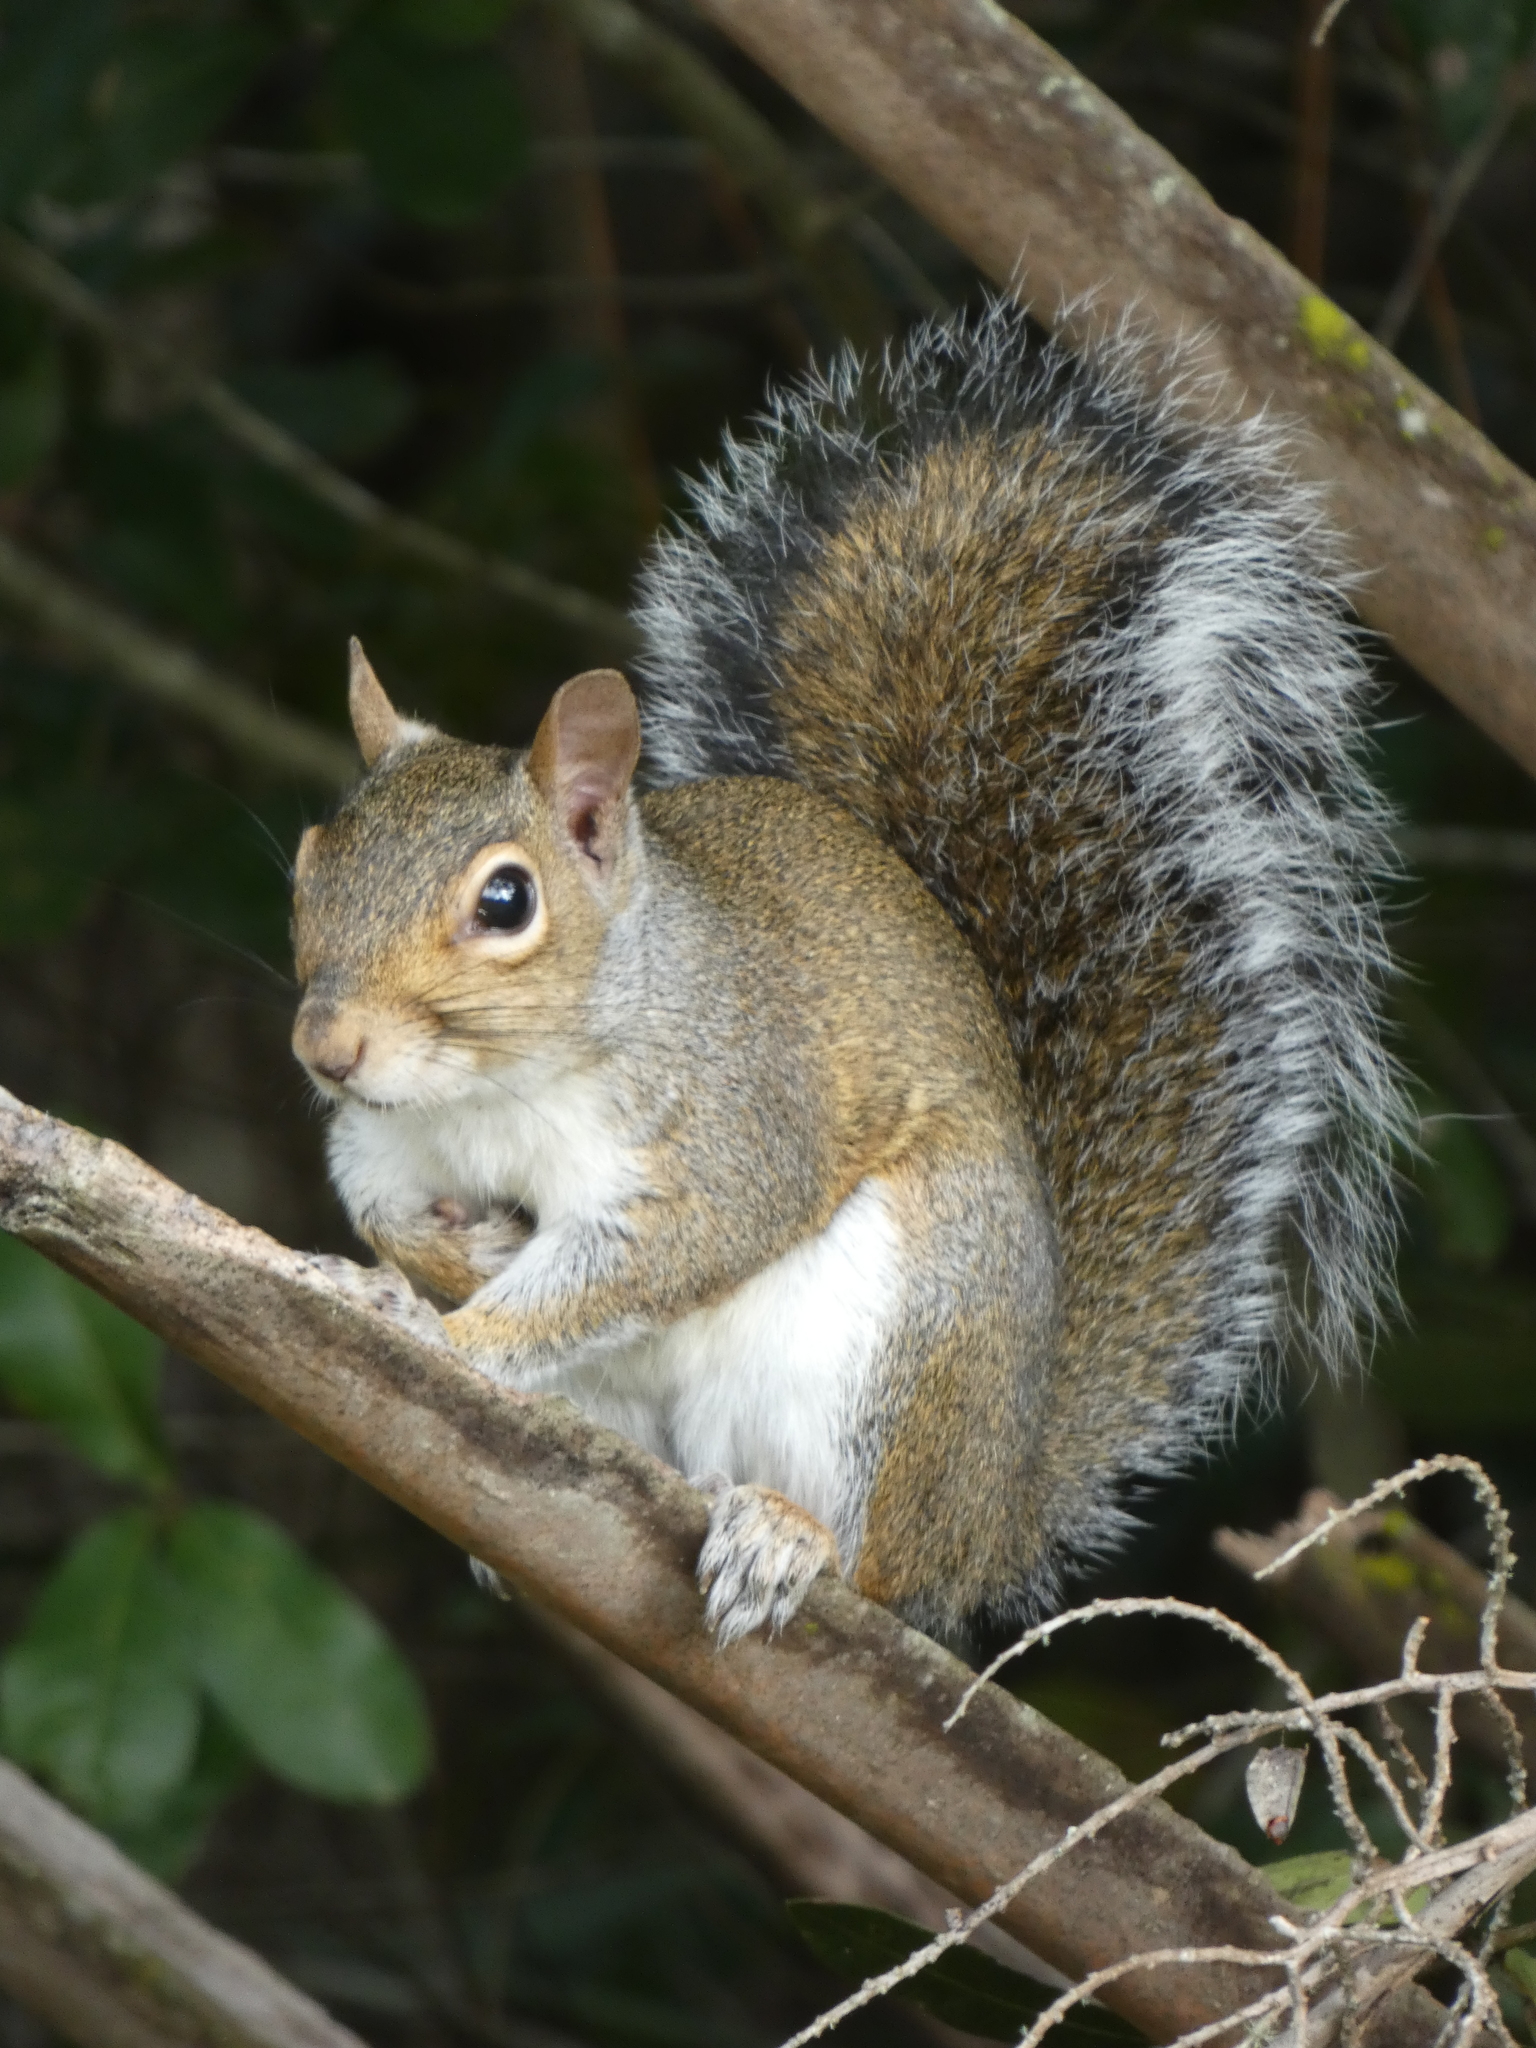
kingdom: Animalia
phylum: Chordata
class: Mammalia
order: Rodentia
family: Sciuridae
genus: Sciurus
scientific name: Sciurus carolinensis
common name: Eastern gray squirrel
